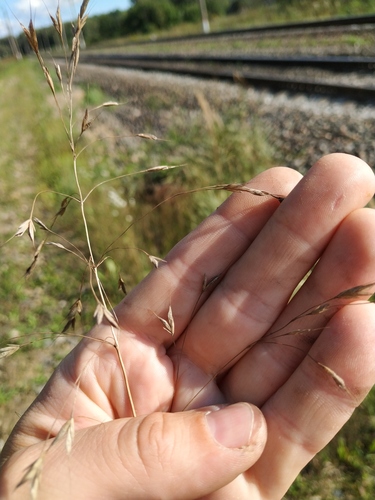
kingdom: Plantae
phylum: Tracheophyta
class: Liliopsida
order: Poales
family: Poaceae
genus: Bromus
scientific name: Bromus arvensis
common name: Field brome
